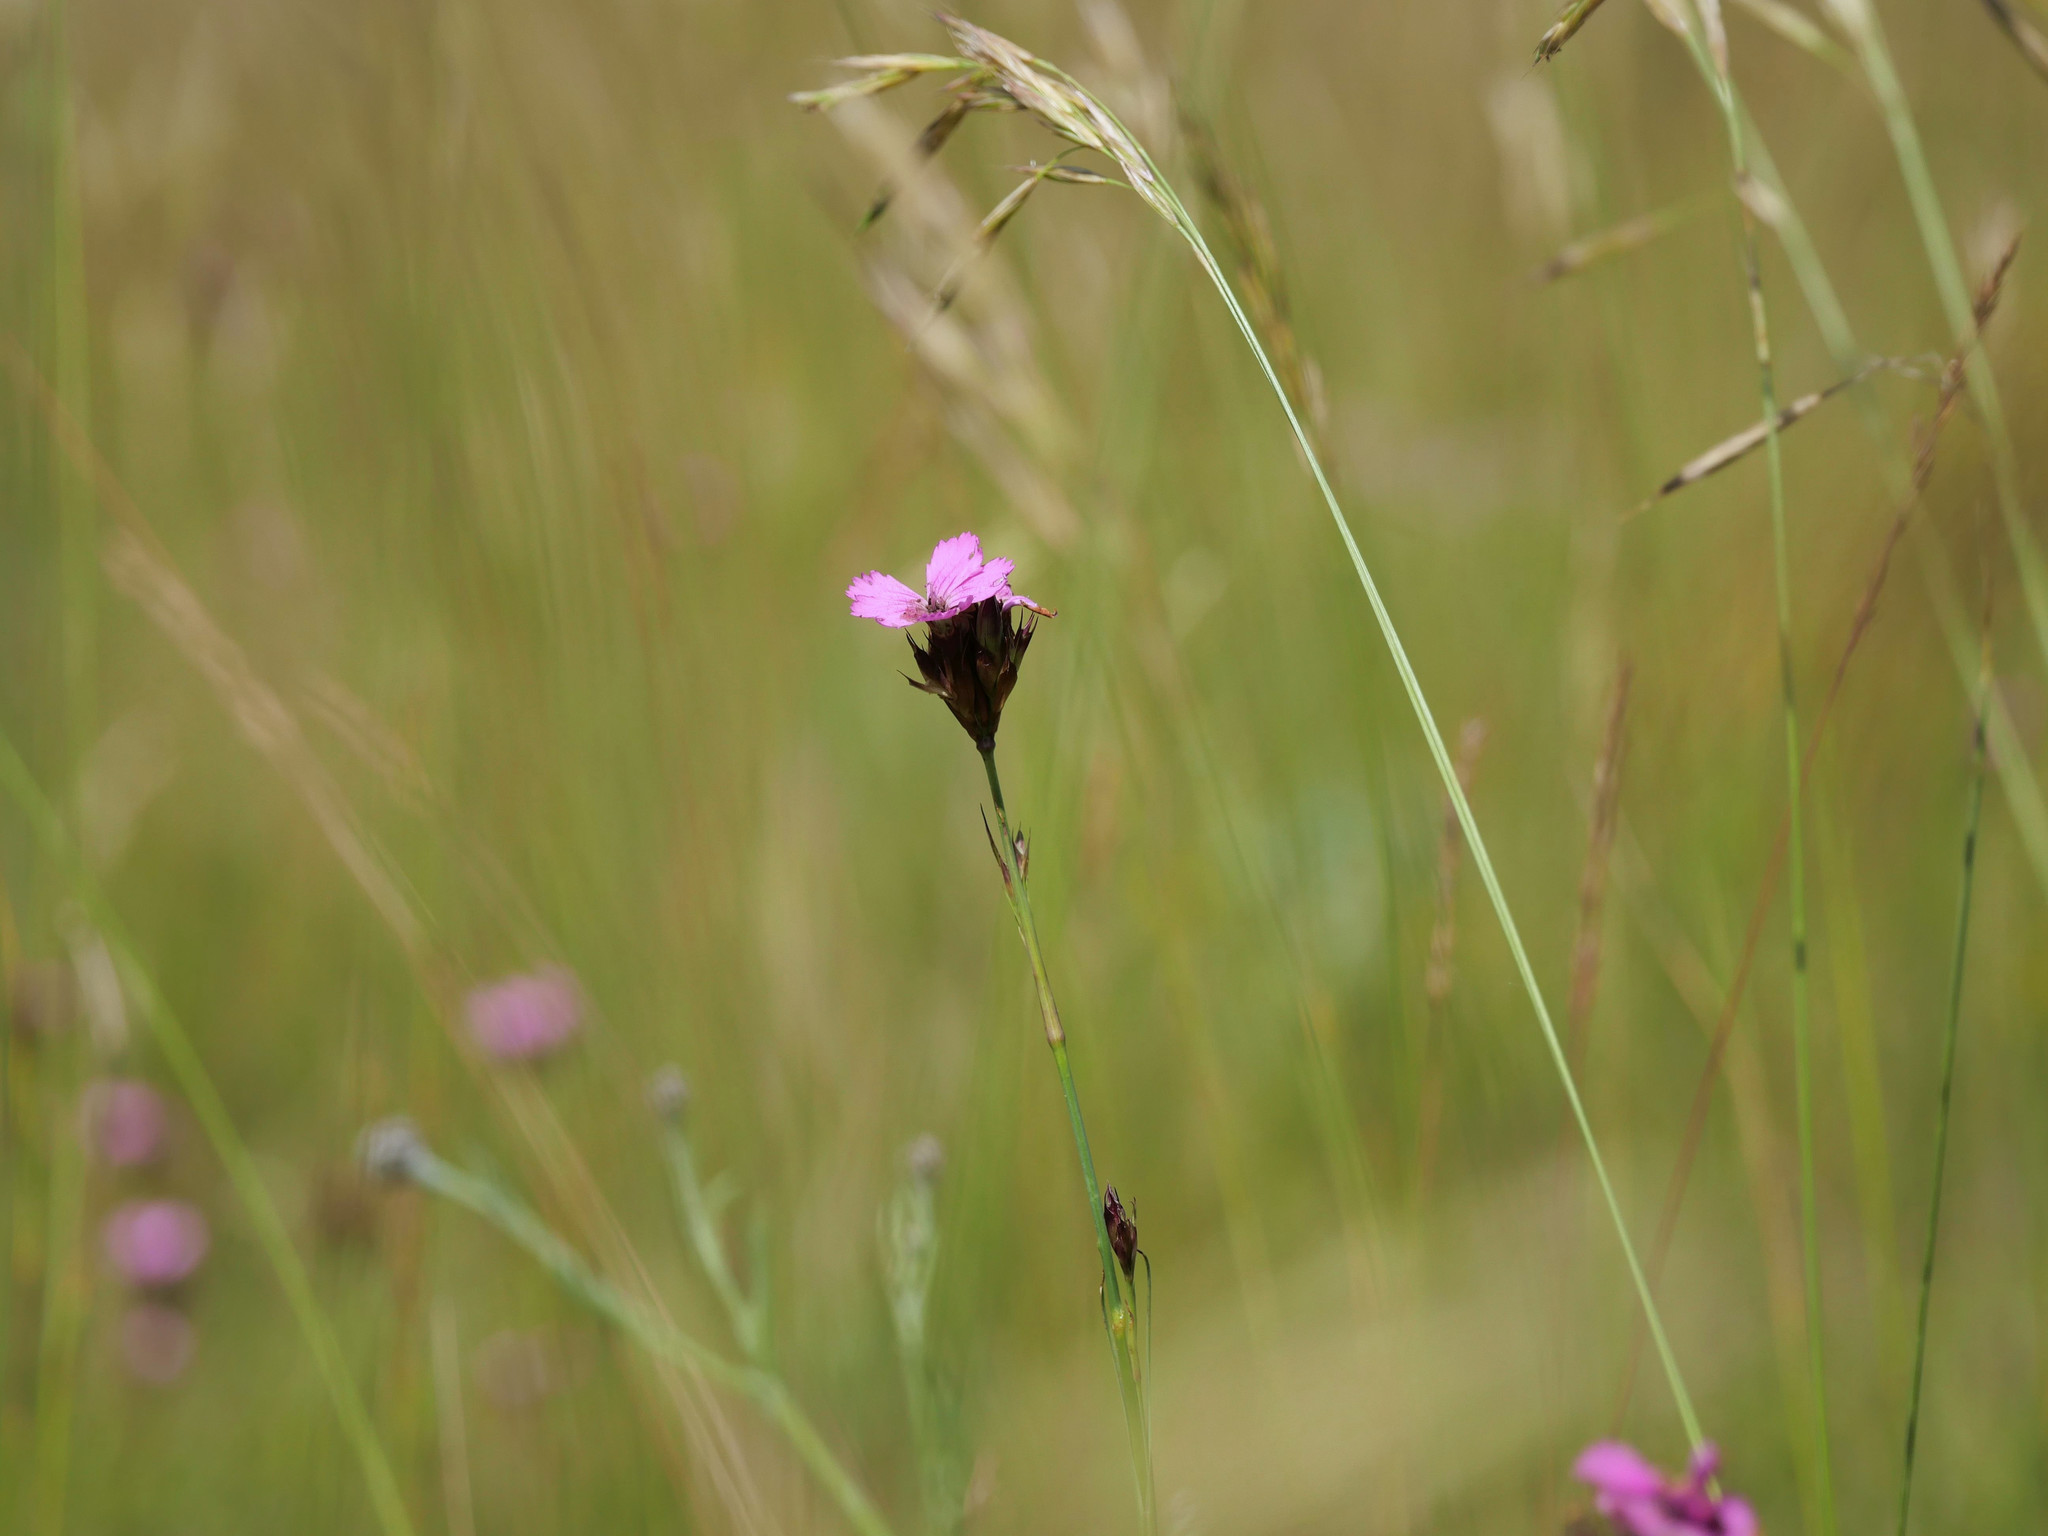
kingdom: Plantae
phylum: Tracheophyta
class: Magnoliopsida
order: Caryophyllales
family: Caryophyllaceae
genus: Dianthus
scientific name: Dianthus carthusianorum
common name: Carthusian pink
